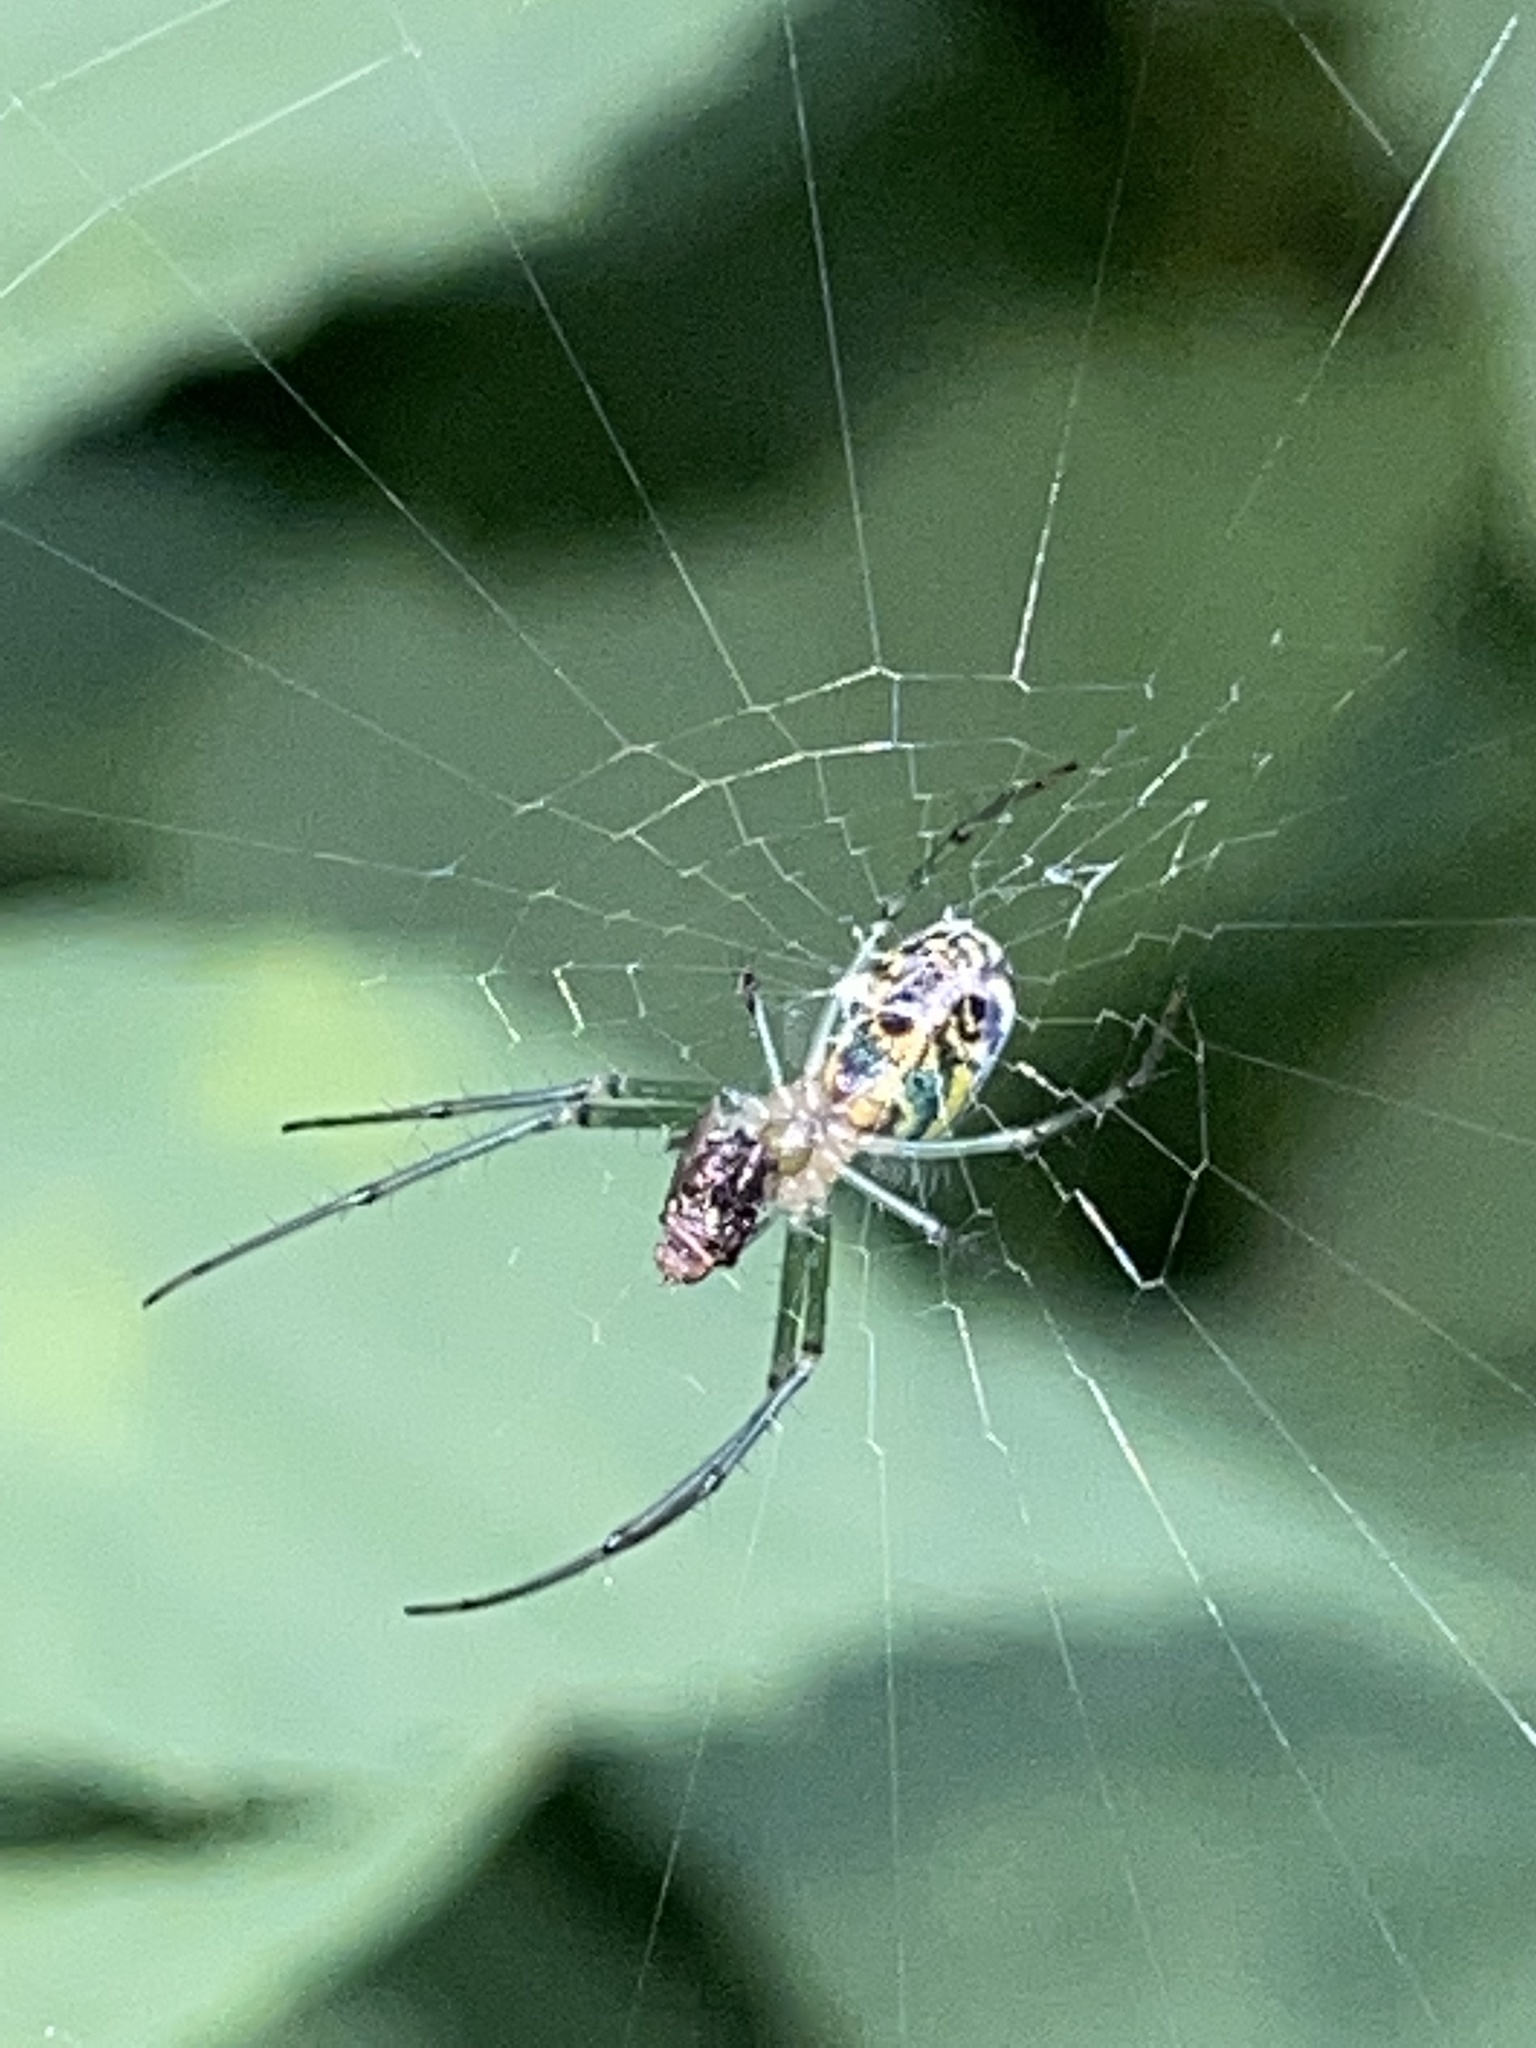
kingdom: Animalia
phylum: Arthropoda
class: Arachnida
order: Araneae
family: Tetragnathidae
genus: Leucauge
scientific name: Leucauge venusta
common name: Longjawed orb weavers
